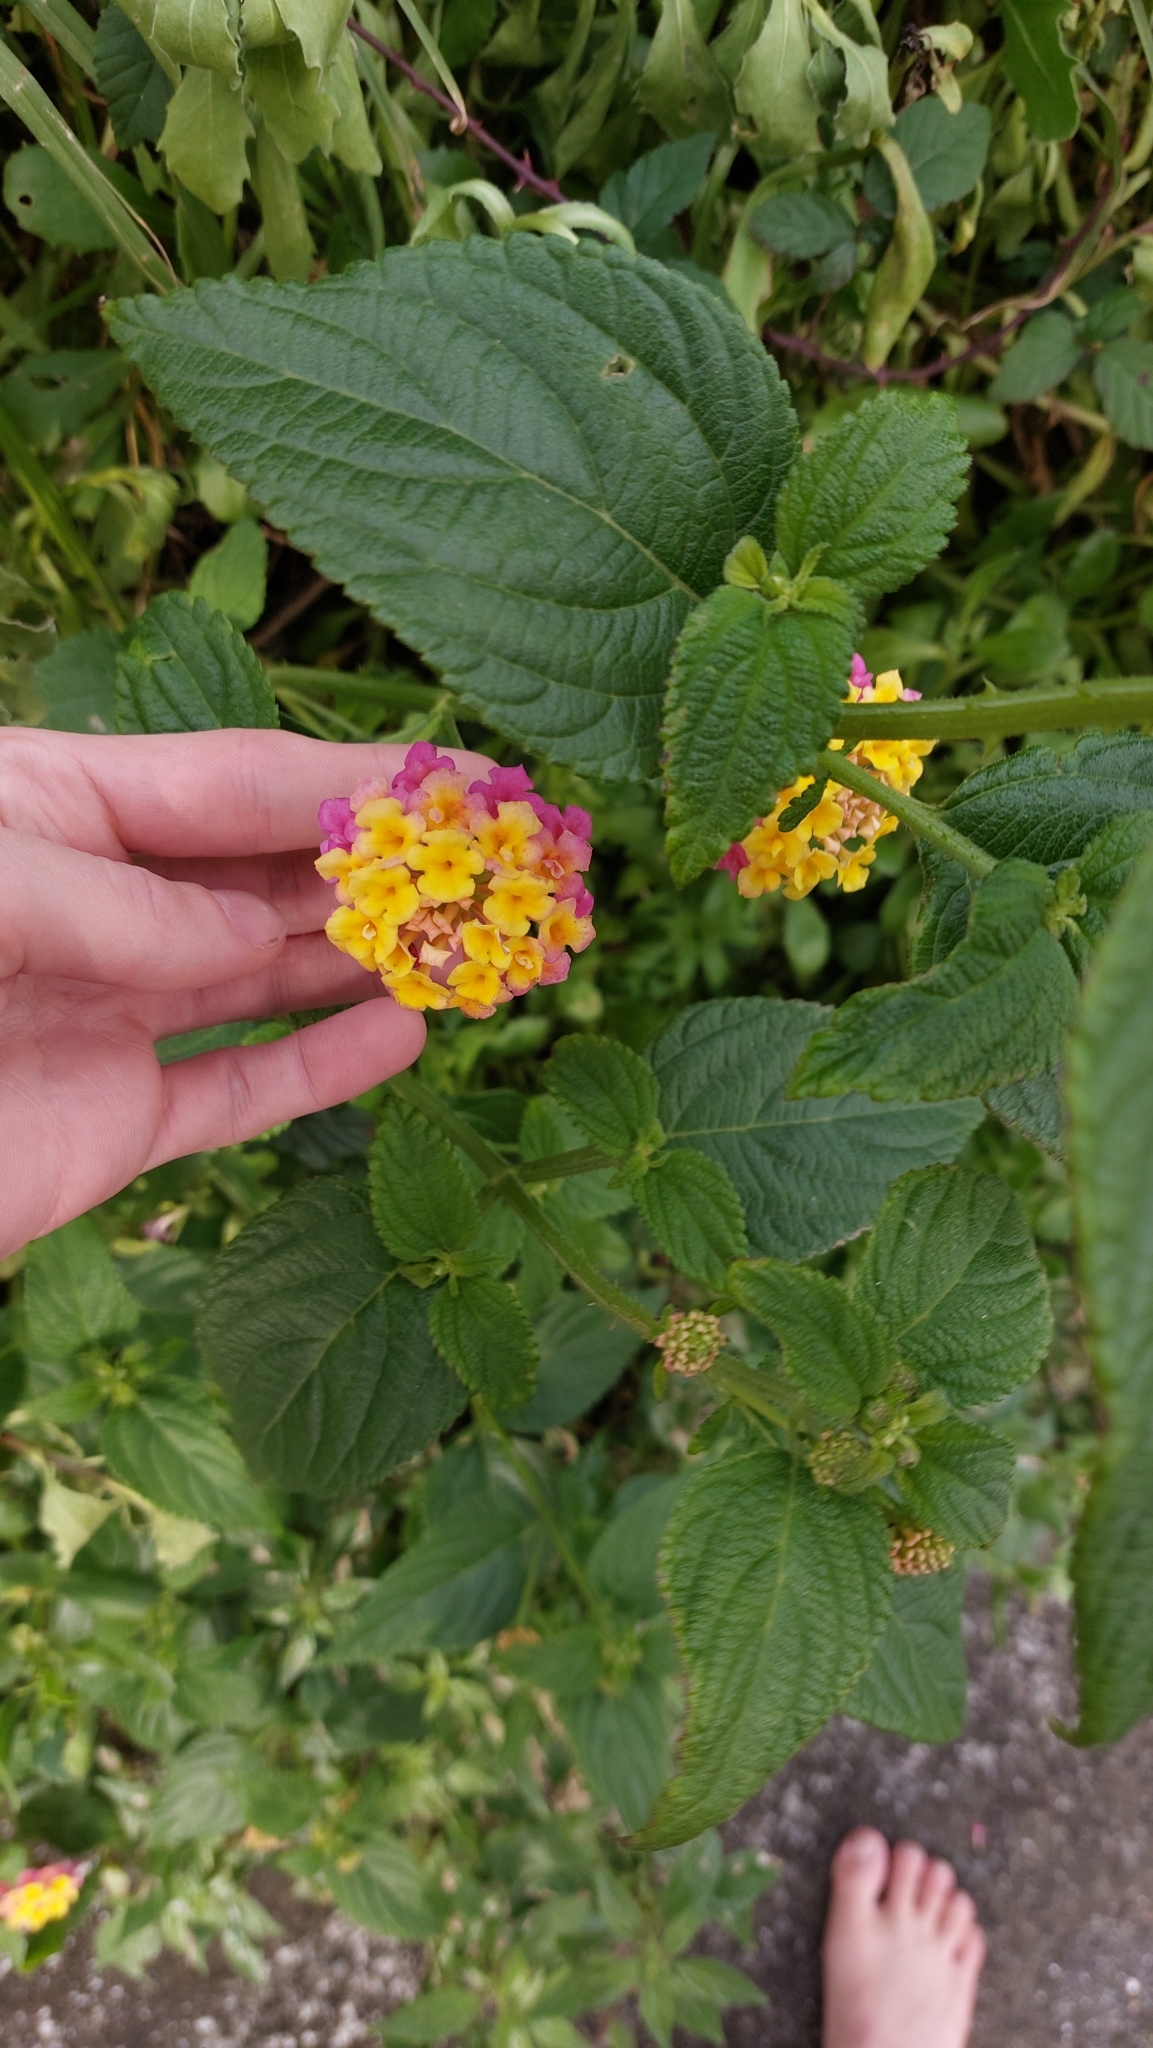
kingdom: Plantae
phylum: Tracheophyta
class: Magnoliopsida
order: Lamiales
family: Verbenaceae
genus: Lantana
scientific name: Lantana camara
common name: Lantana
